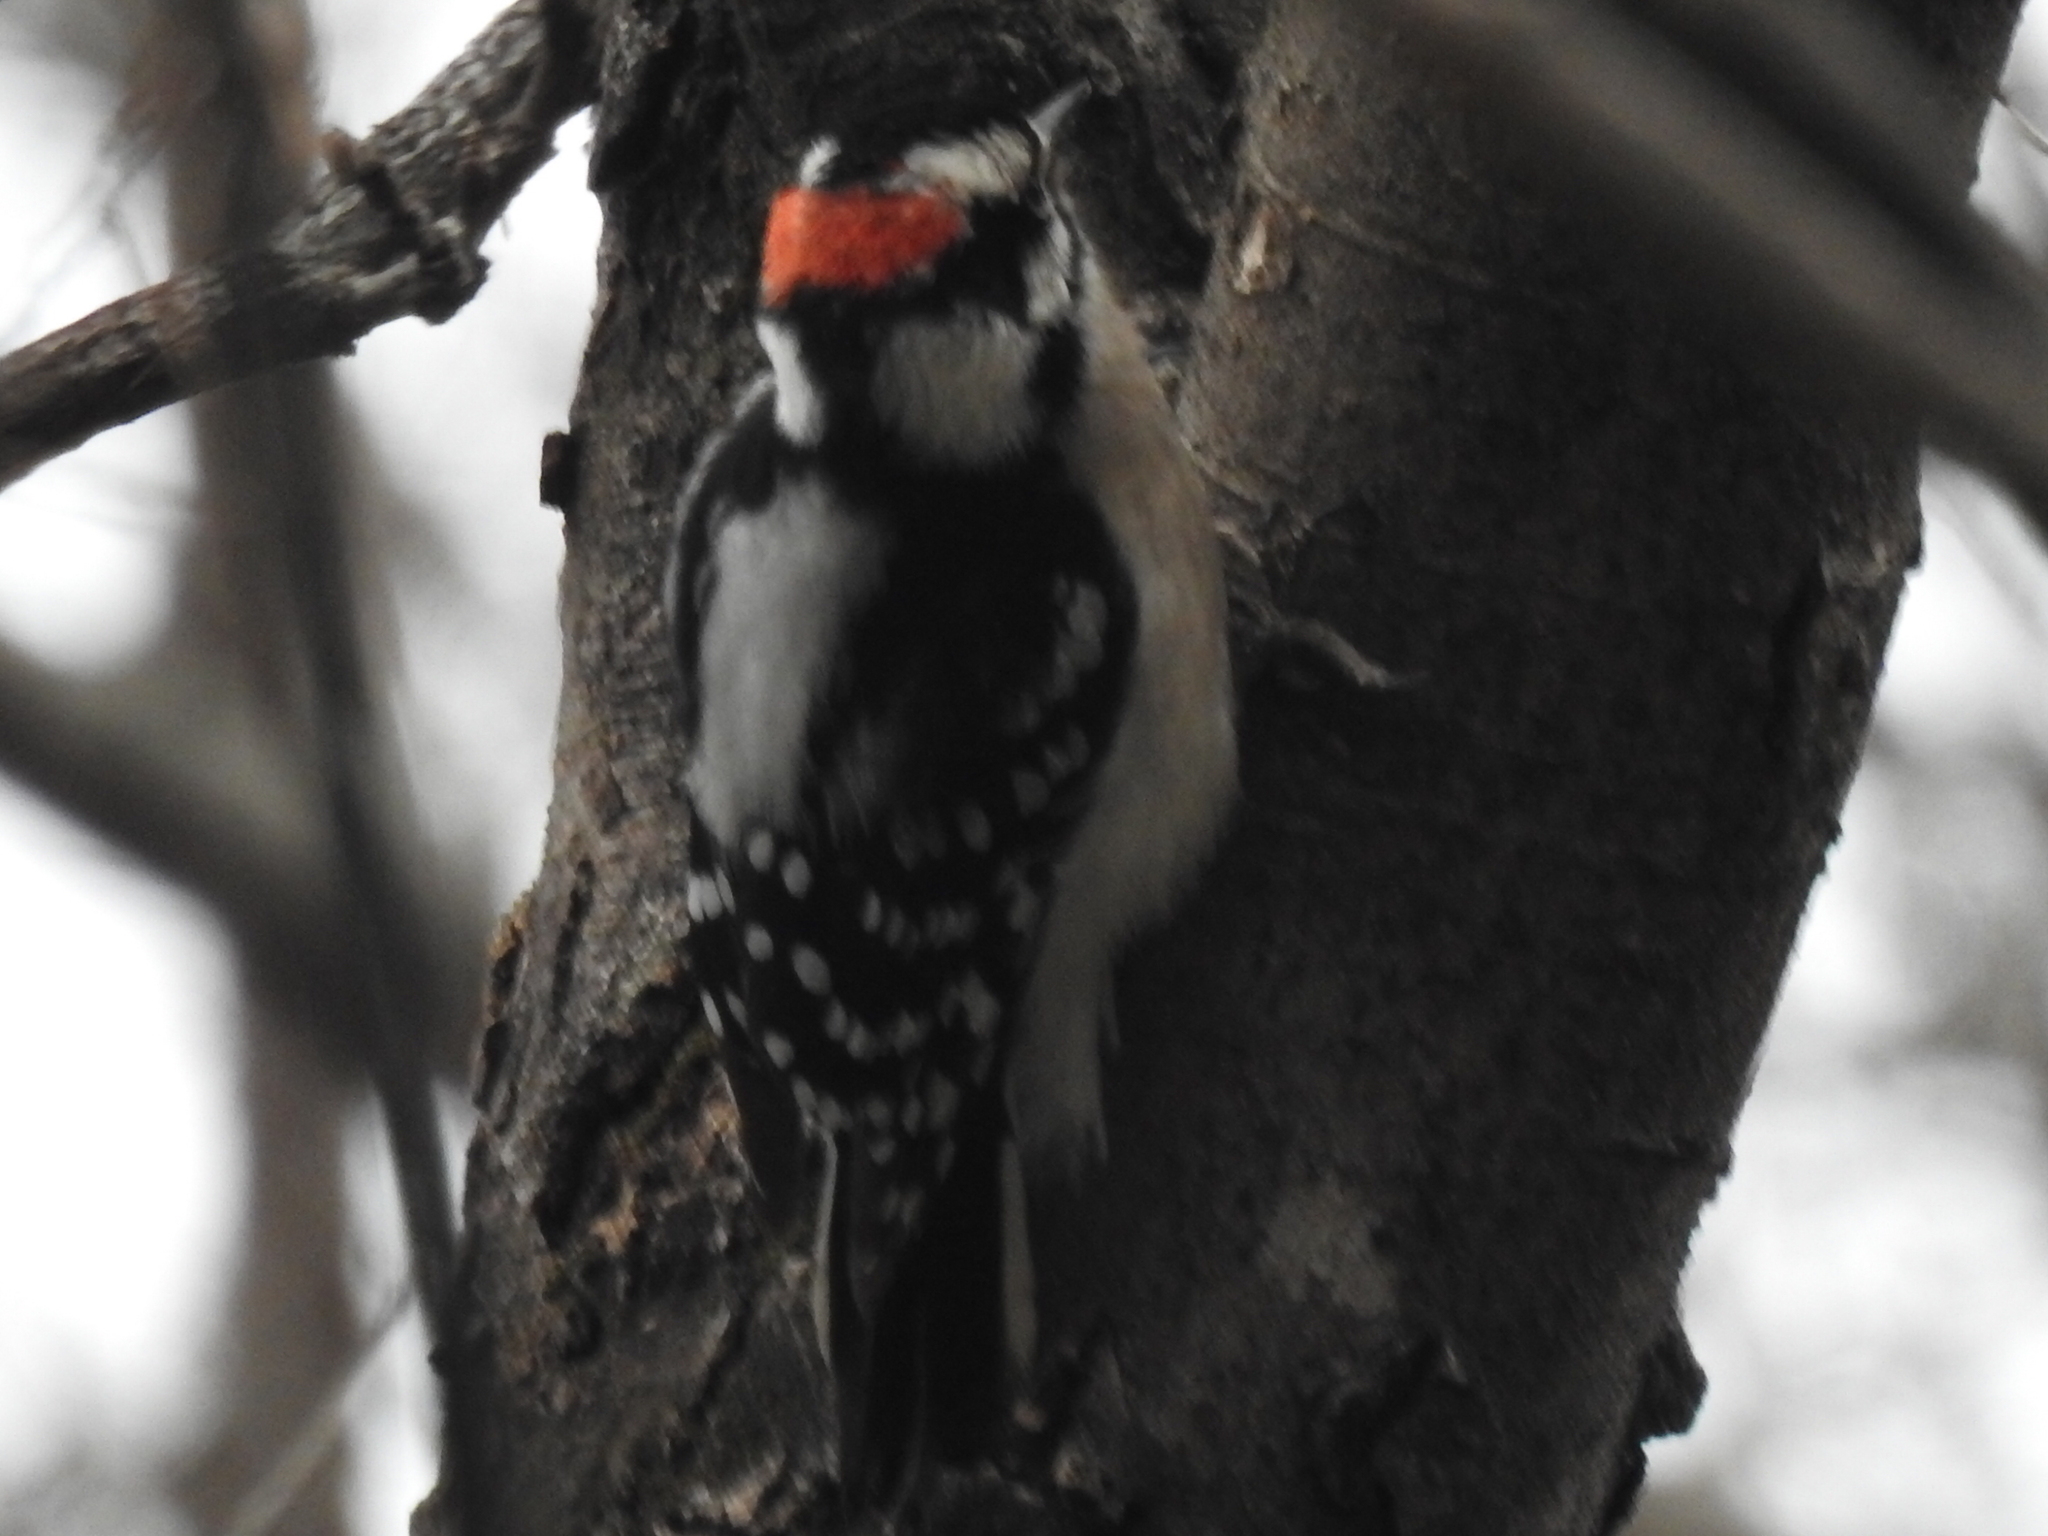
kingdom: Animalia
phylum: Chordata
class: Aves
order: Piciformes
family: Picidae
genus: Dryobates
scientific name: Dryobates pubescens
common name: Downy woodpecker
